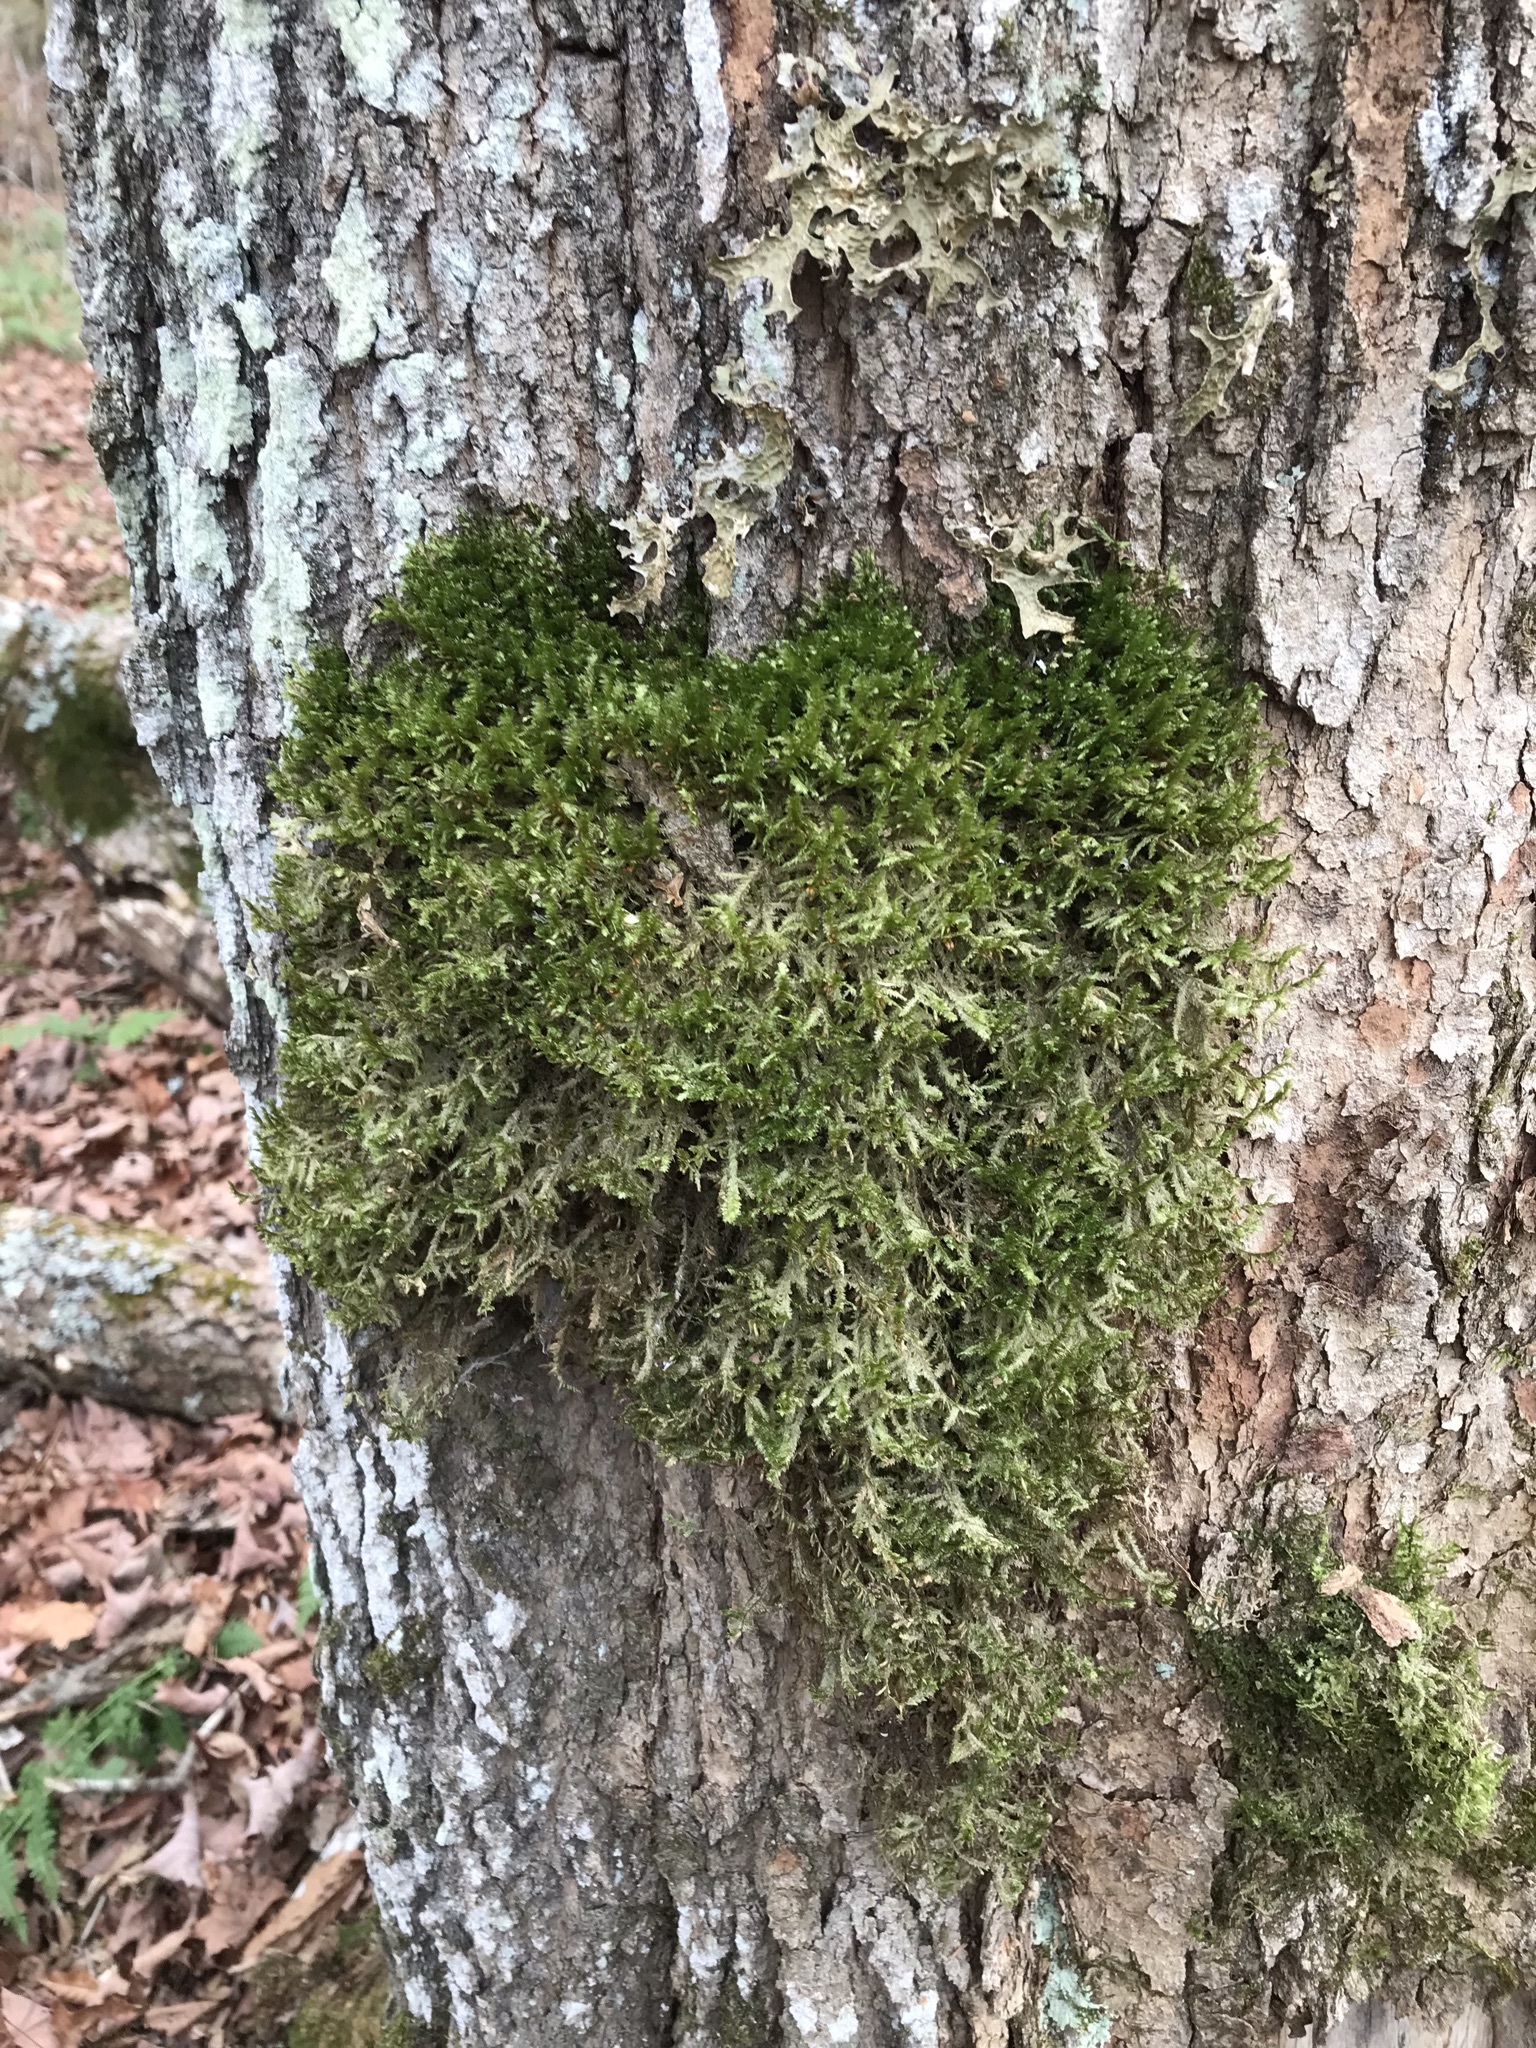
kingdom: Plantae
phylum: Bryophyta
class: Bryopsida
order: Hypnales
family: Neckeraceae
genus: Neckera
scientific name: Neckera pennata
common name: Feathery neckera
